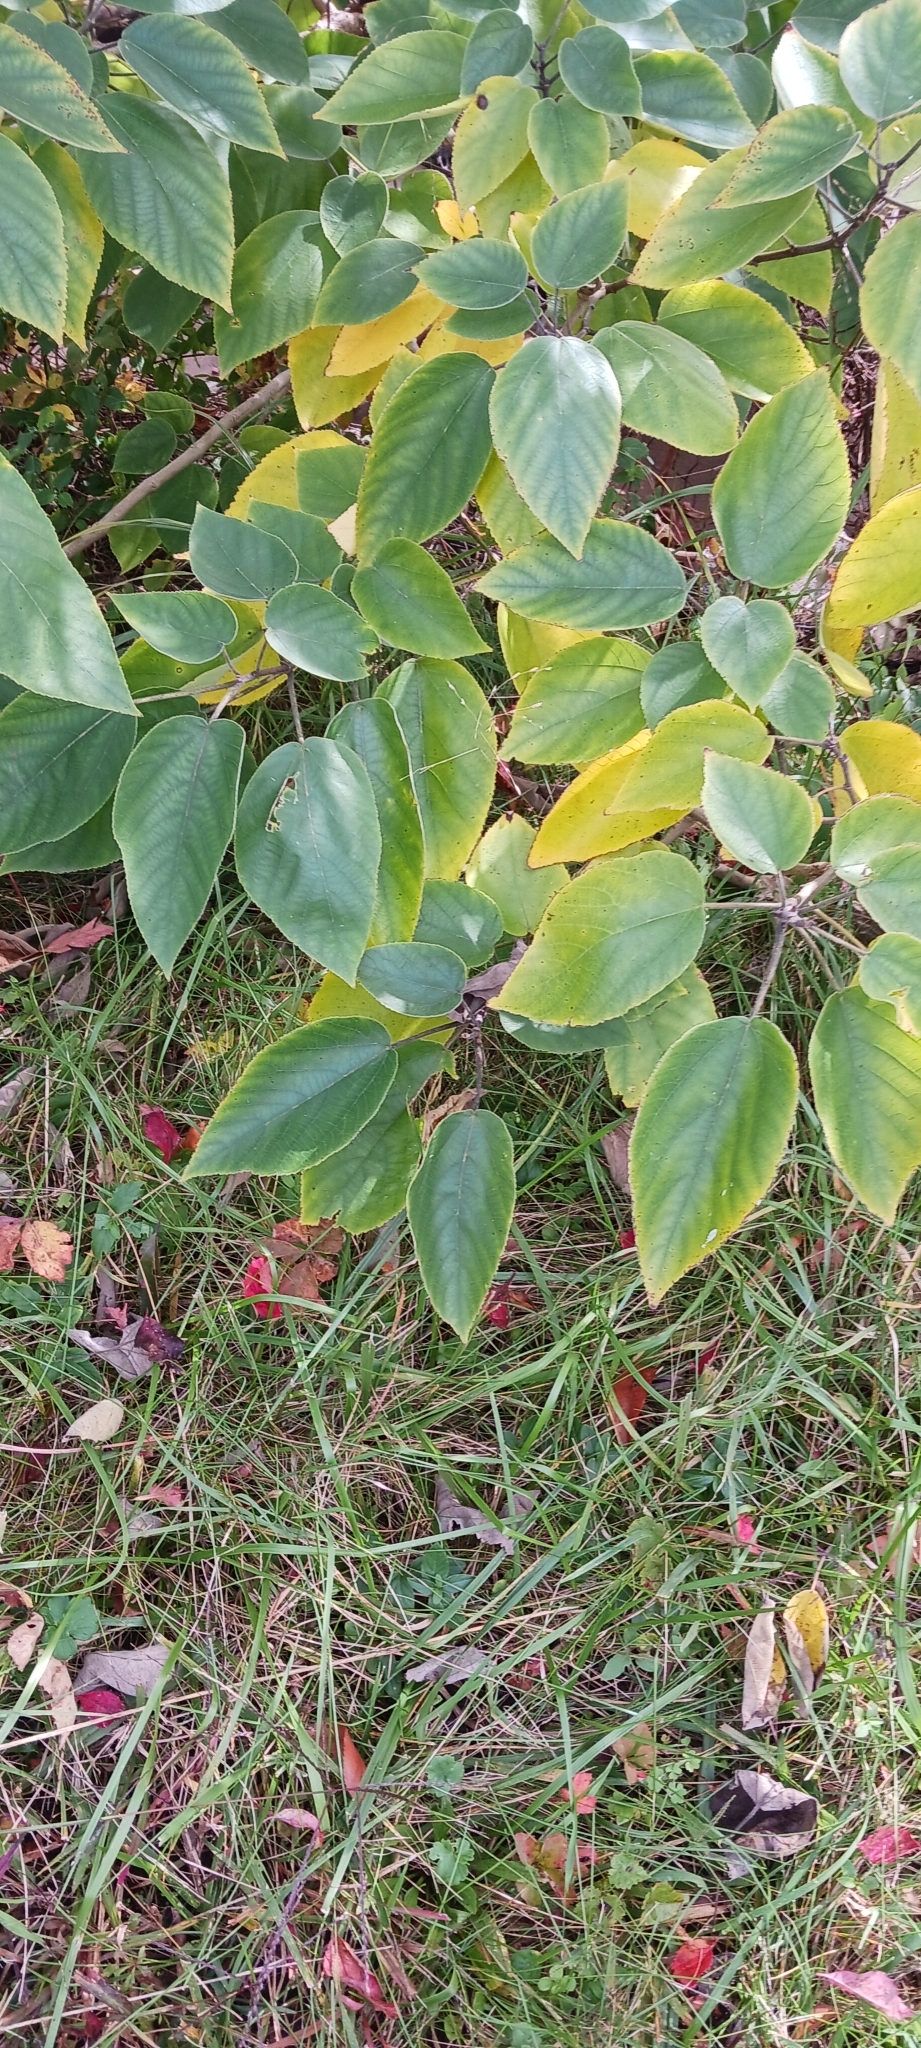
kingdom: Plantae
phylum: Tracheophyta
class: Magnoliopsida
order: Rosales
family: Moraceae
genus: Broussonetia
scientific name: Broussonetia papyrifera
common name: Paper mulberry
